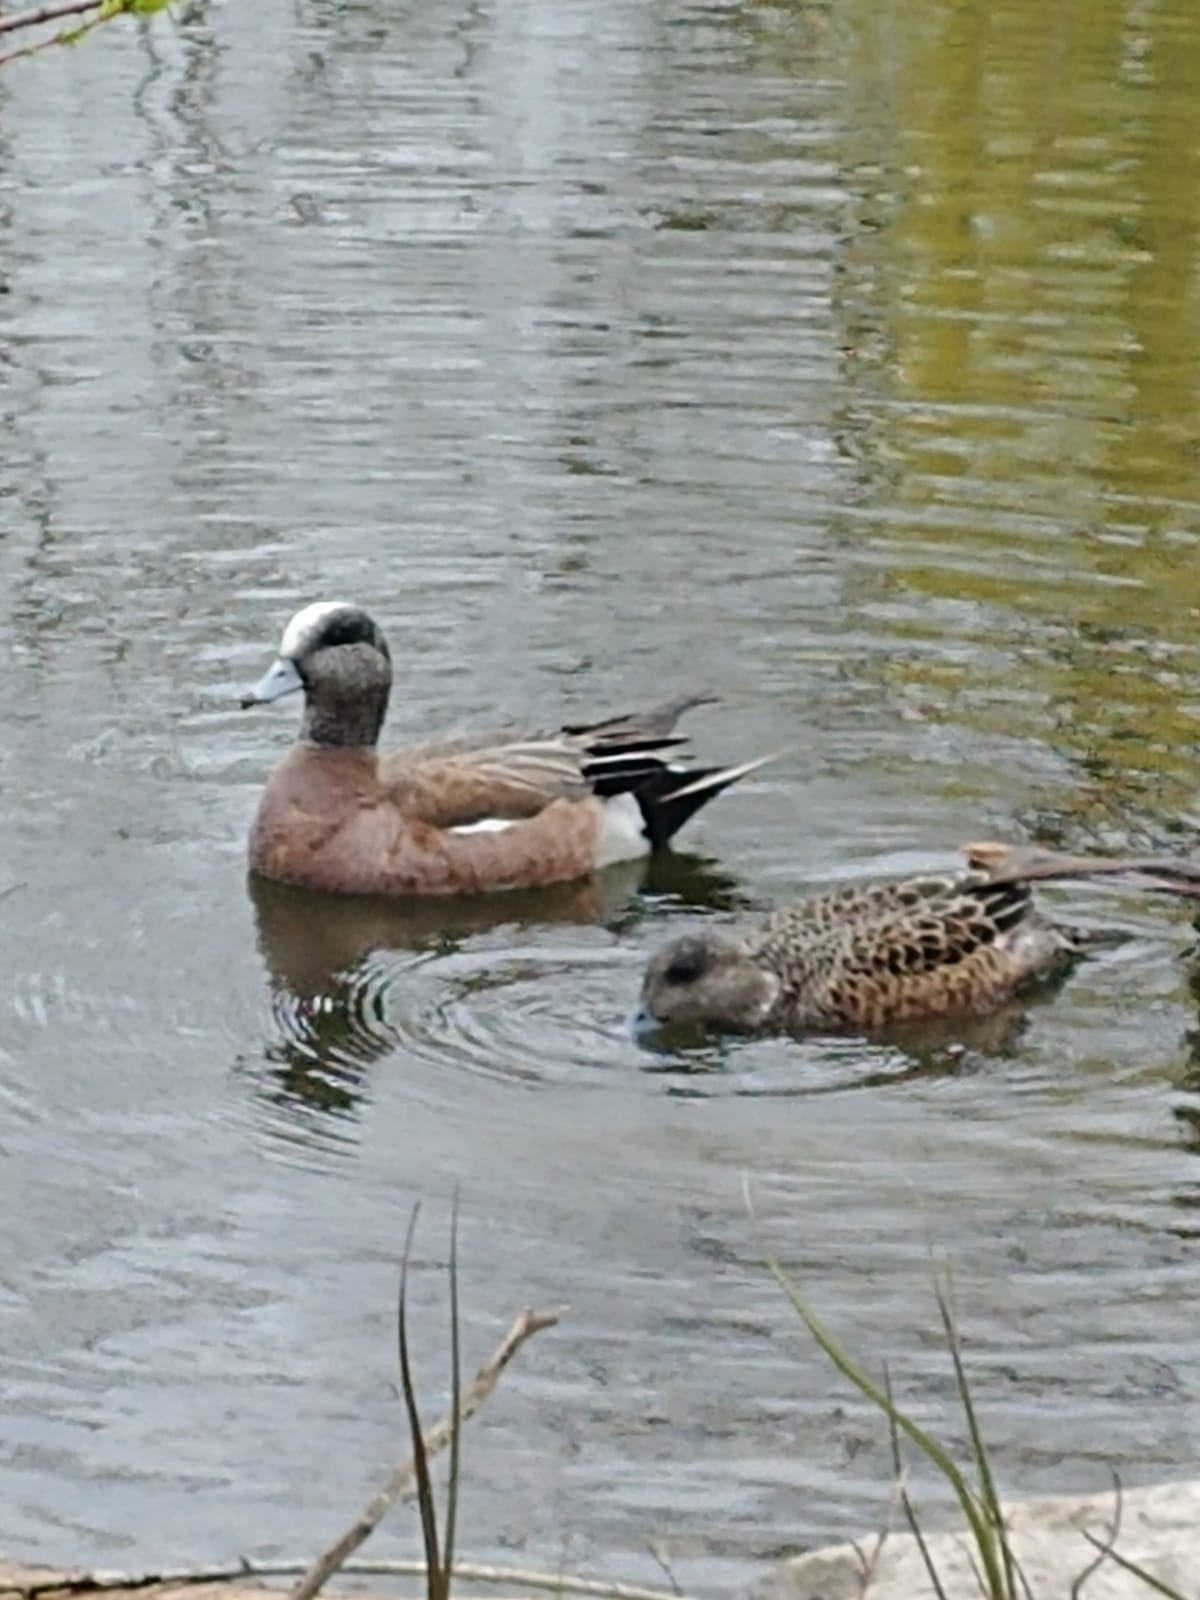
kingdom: Animalia
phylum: Chordata
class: Aves
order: Anseriformes
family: Anatidae
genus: Mareca
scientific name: Mareca americana
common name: American wigeon
